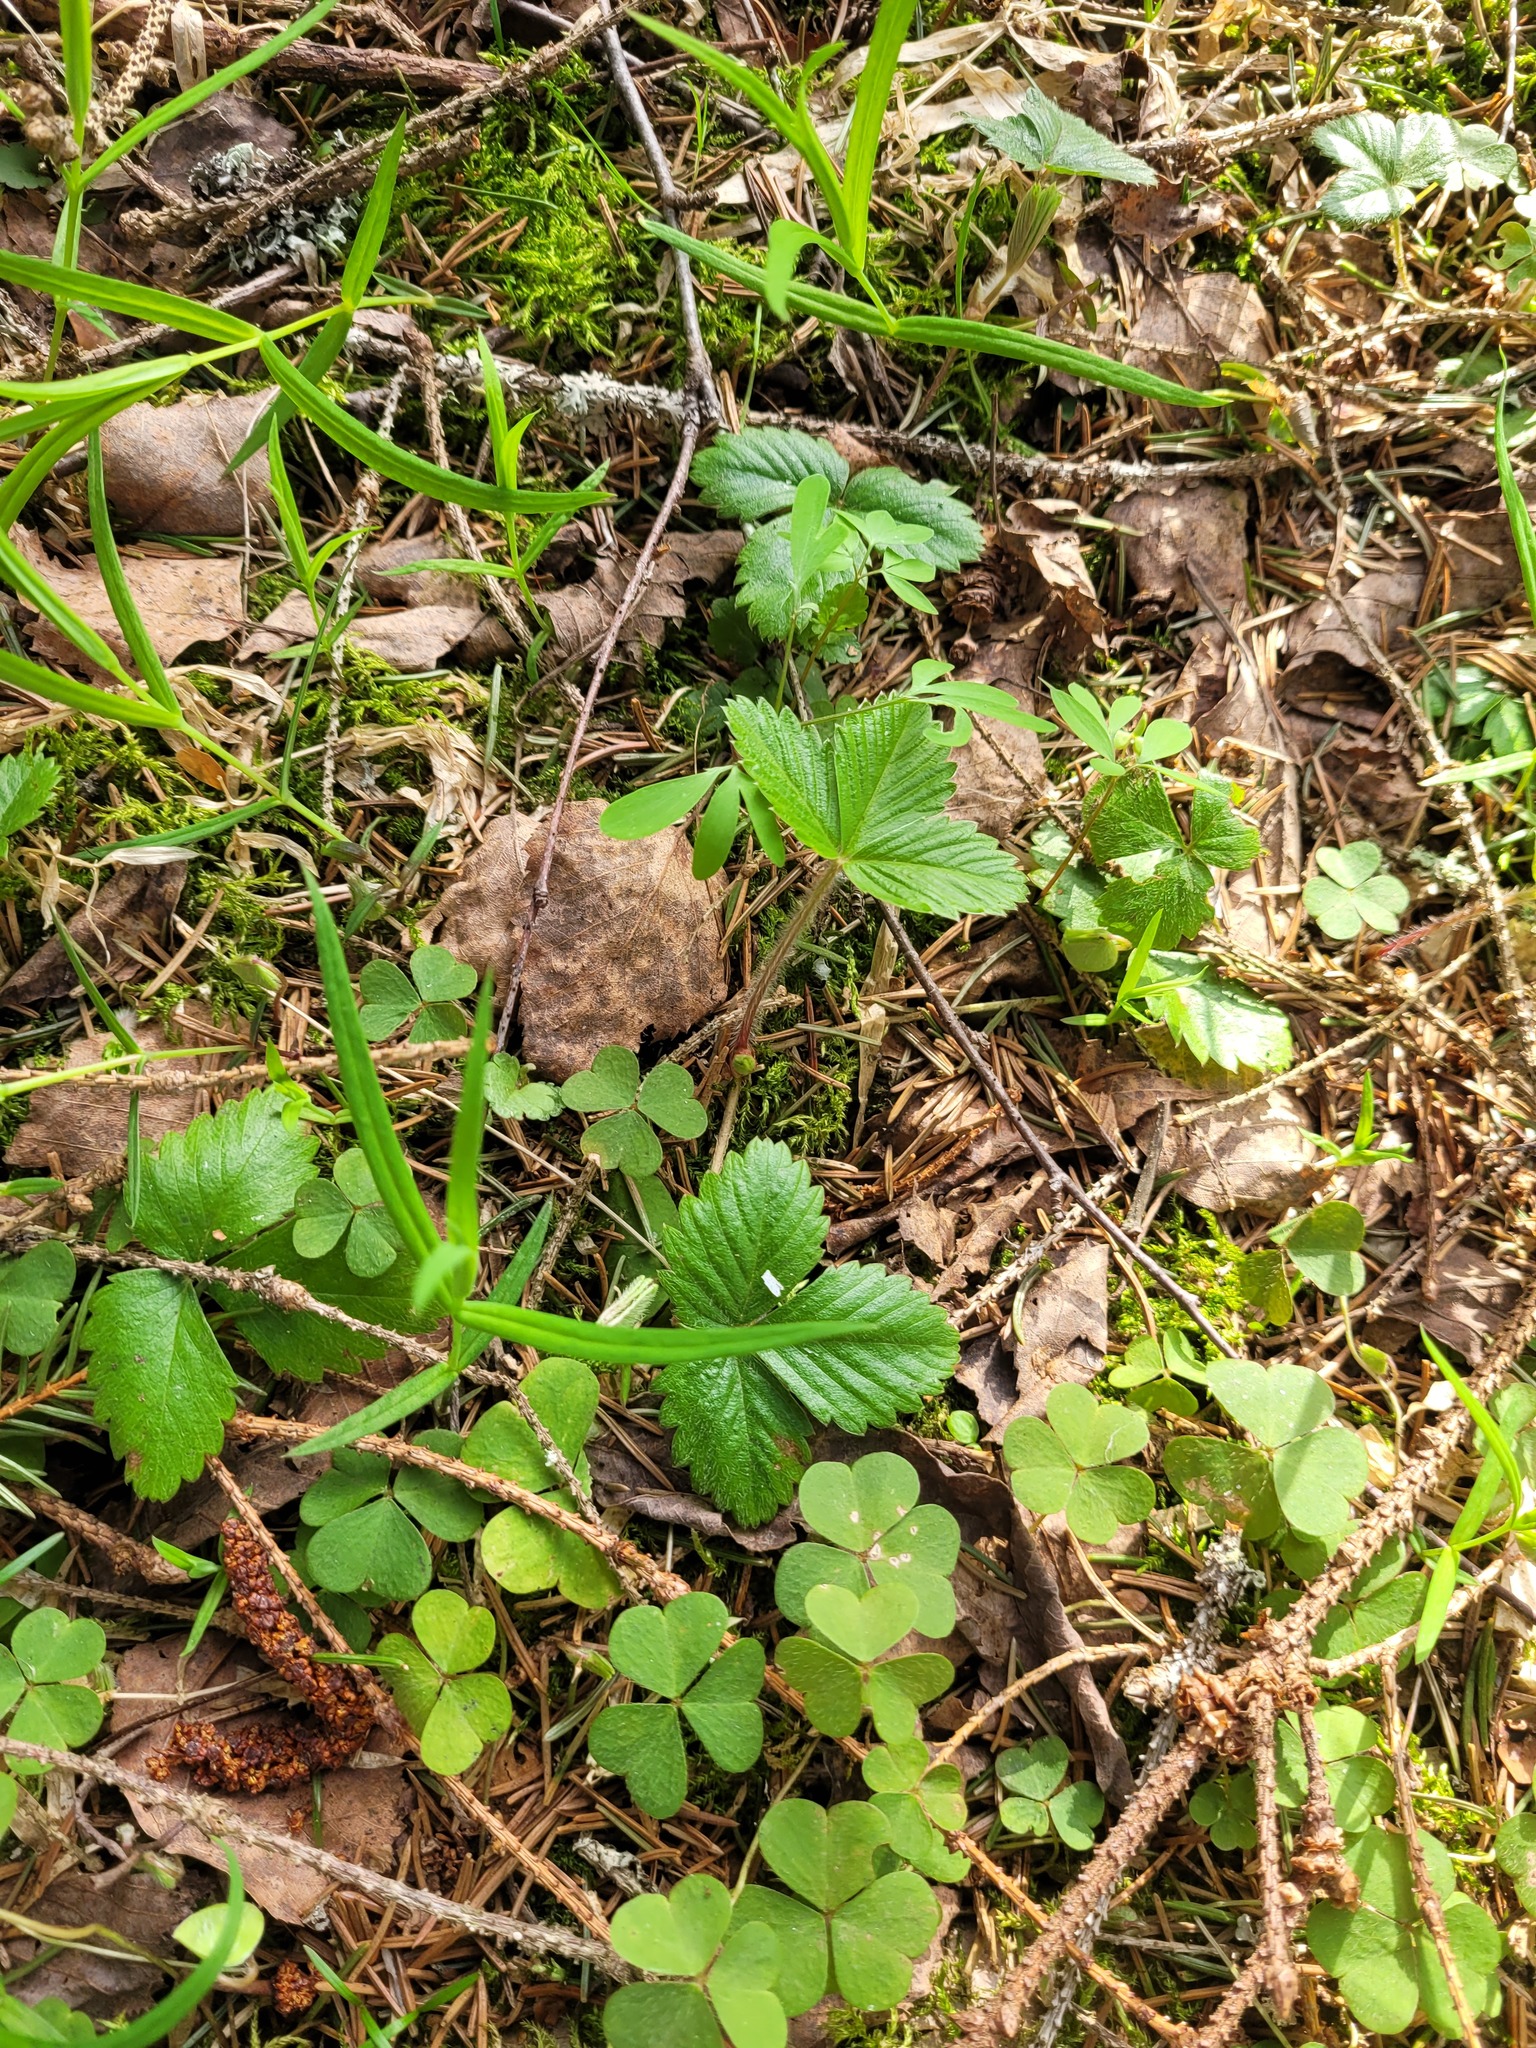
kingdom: Plantae
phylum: Tracheophyta
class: Magnoliopsida
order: Rosales
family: Rosaceae
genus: Fragaria
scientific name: Fragaria vesca
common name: Wild strawberry
